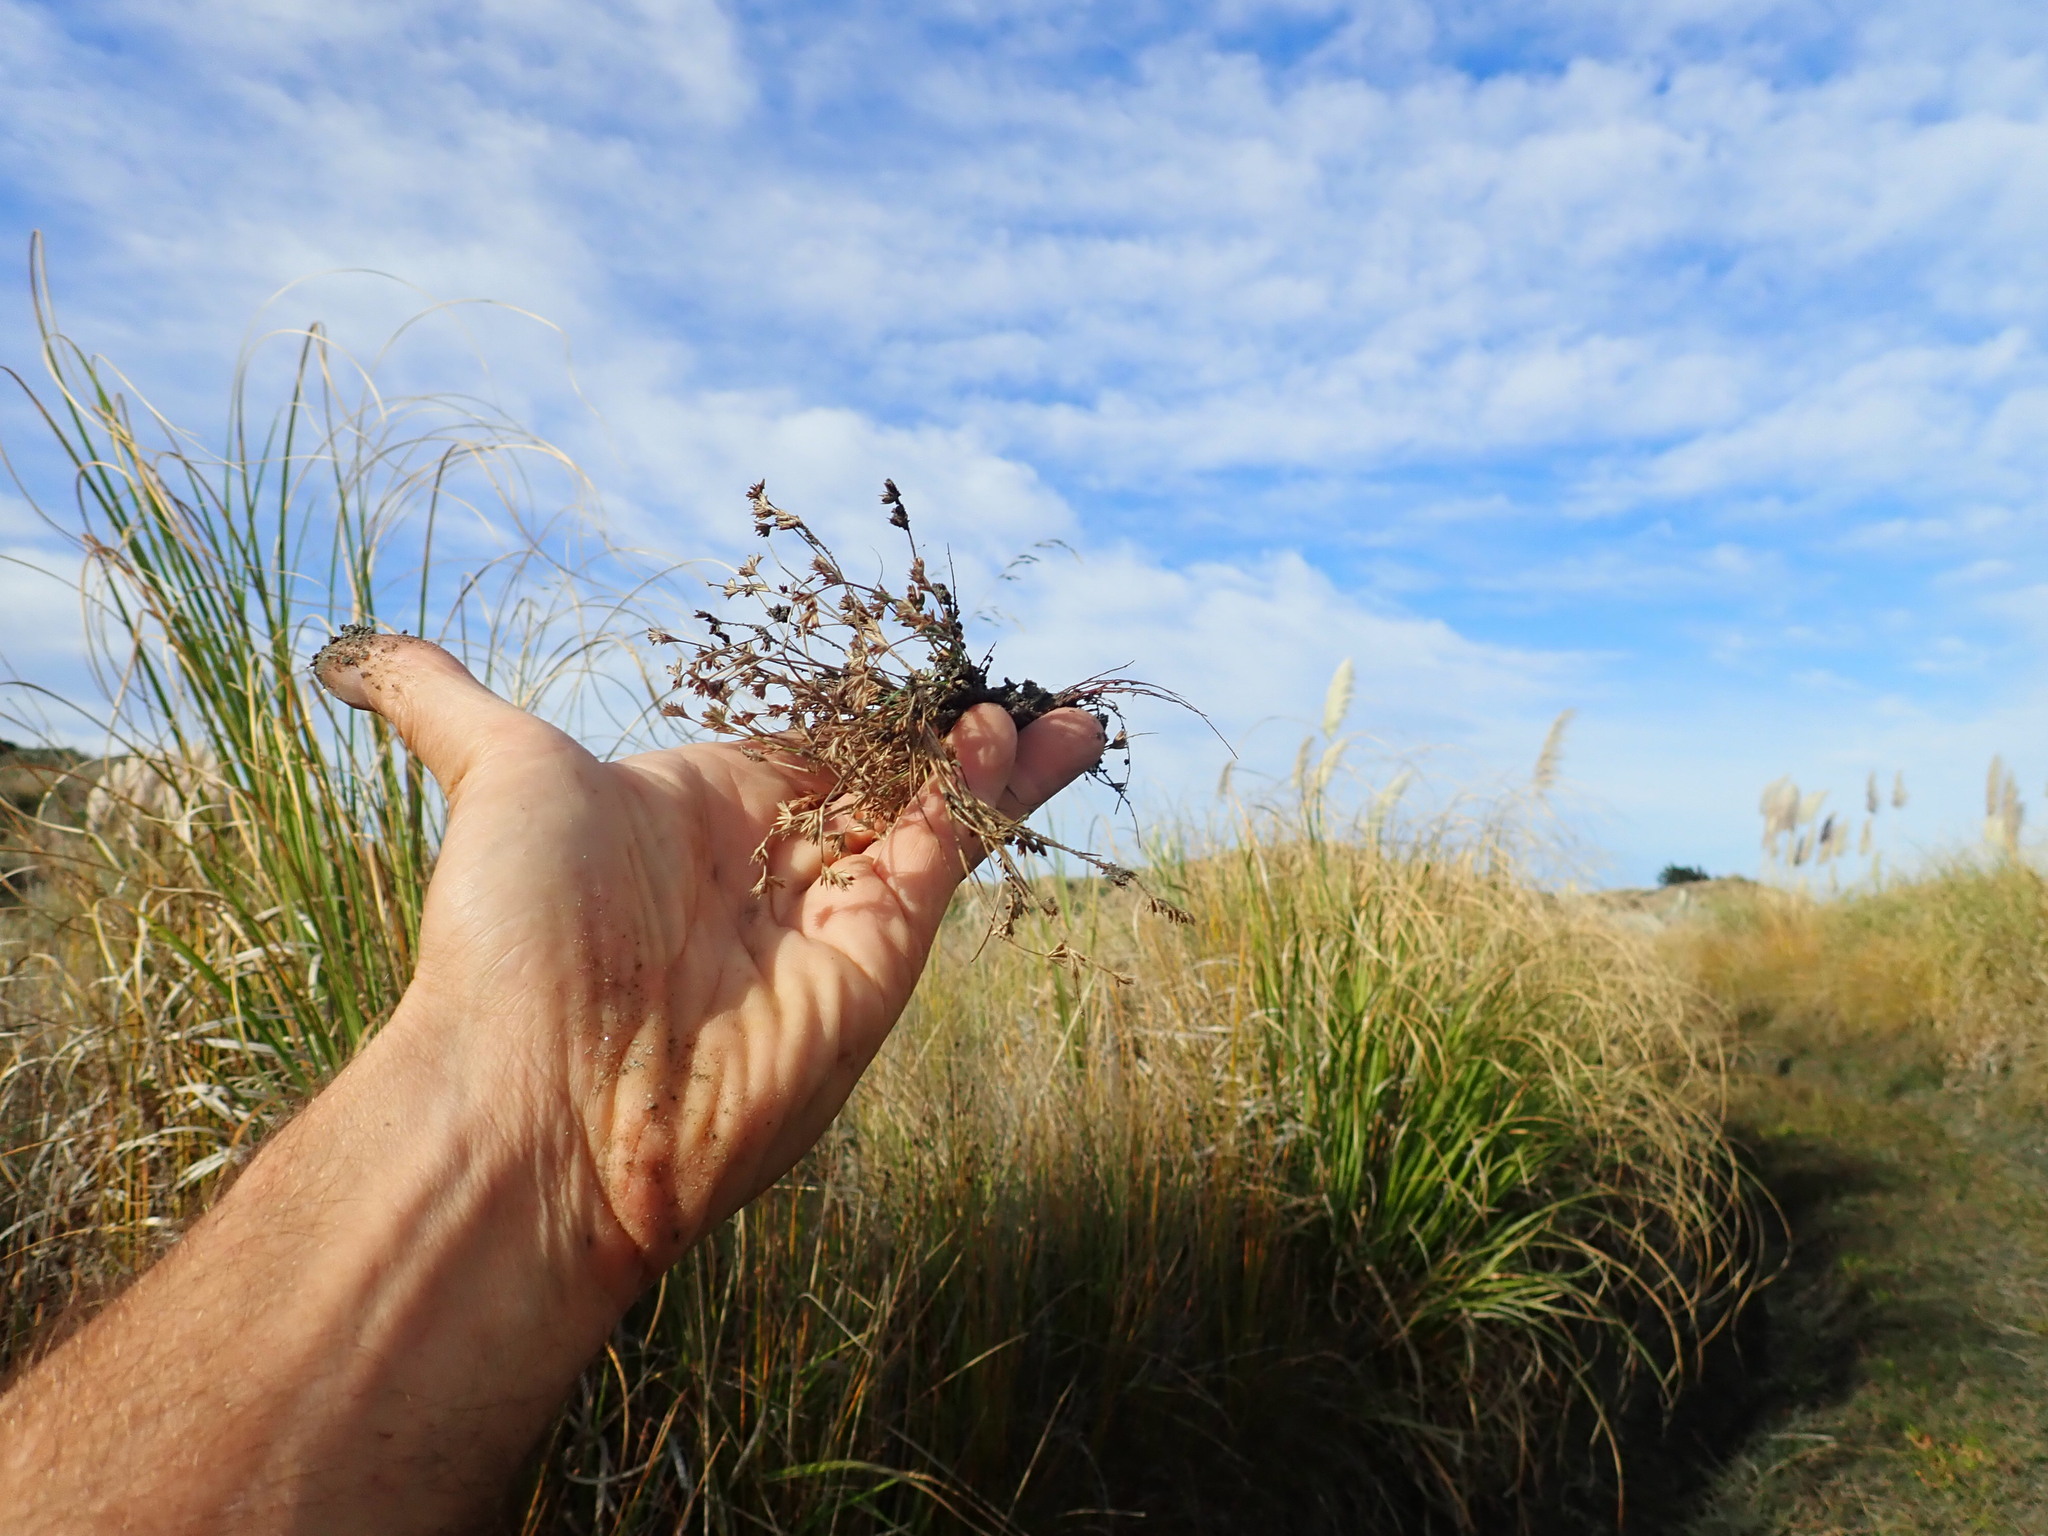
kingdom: Plantae
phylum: Tracheophyta
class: Liliopsida
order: Poales
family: Juncaceae
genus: Juncus
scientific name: Juncus bufonius
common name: Toad rush
